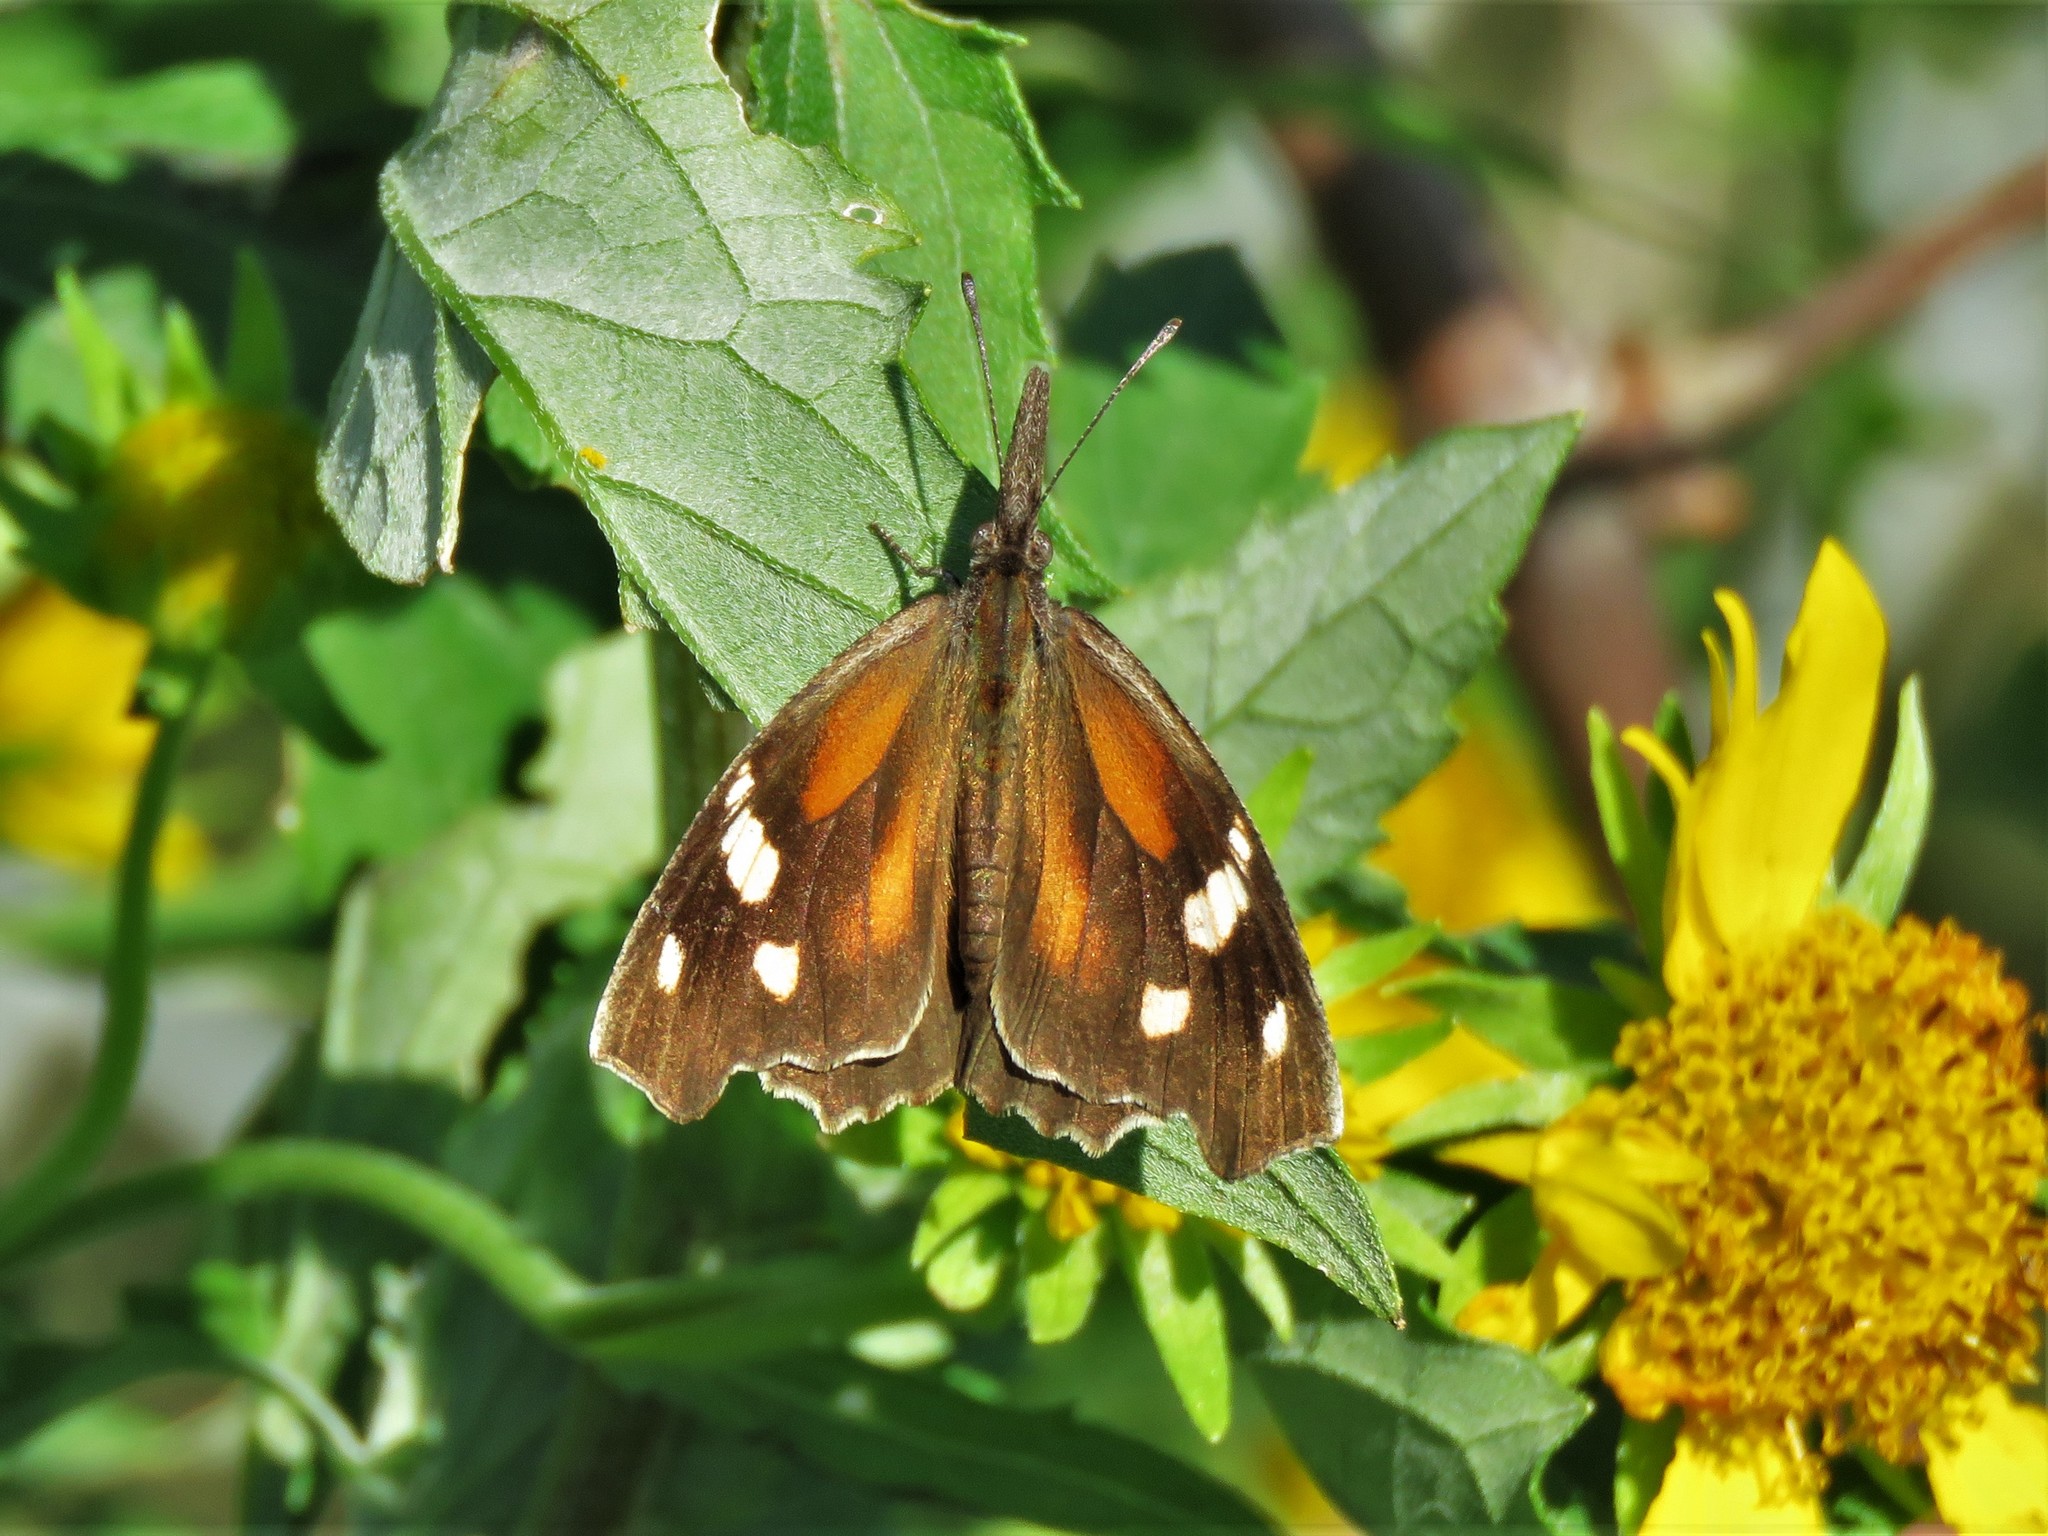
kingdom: Animalia
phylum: Arthropoda
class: Insecta
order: Lepidoptera
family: Nymphalidae
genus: Libytheana
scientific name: Libytheana carinenta
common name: American snout
